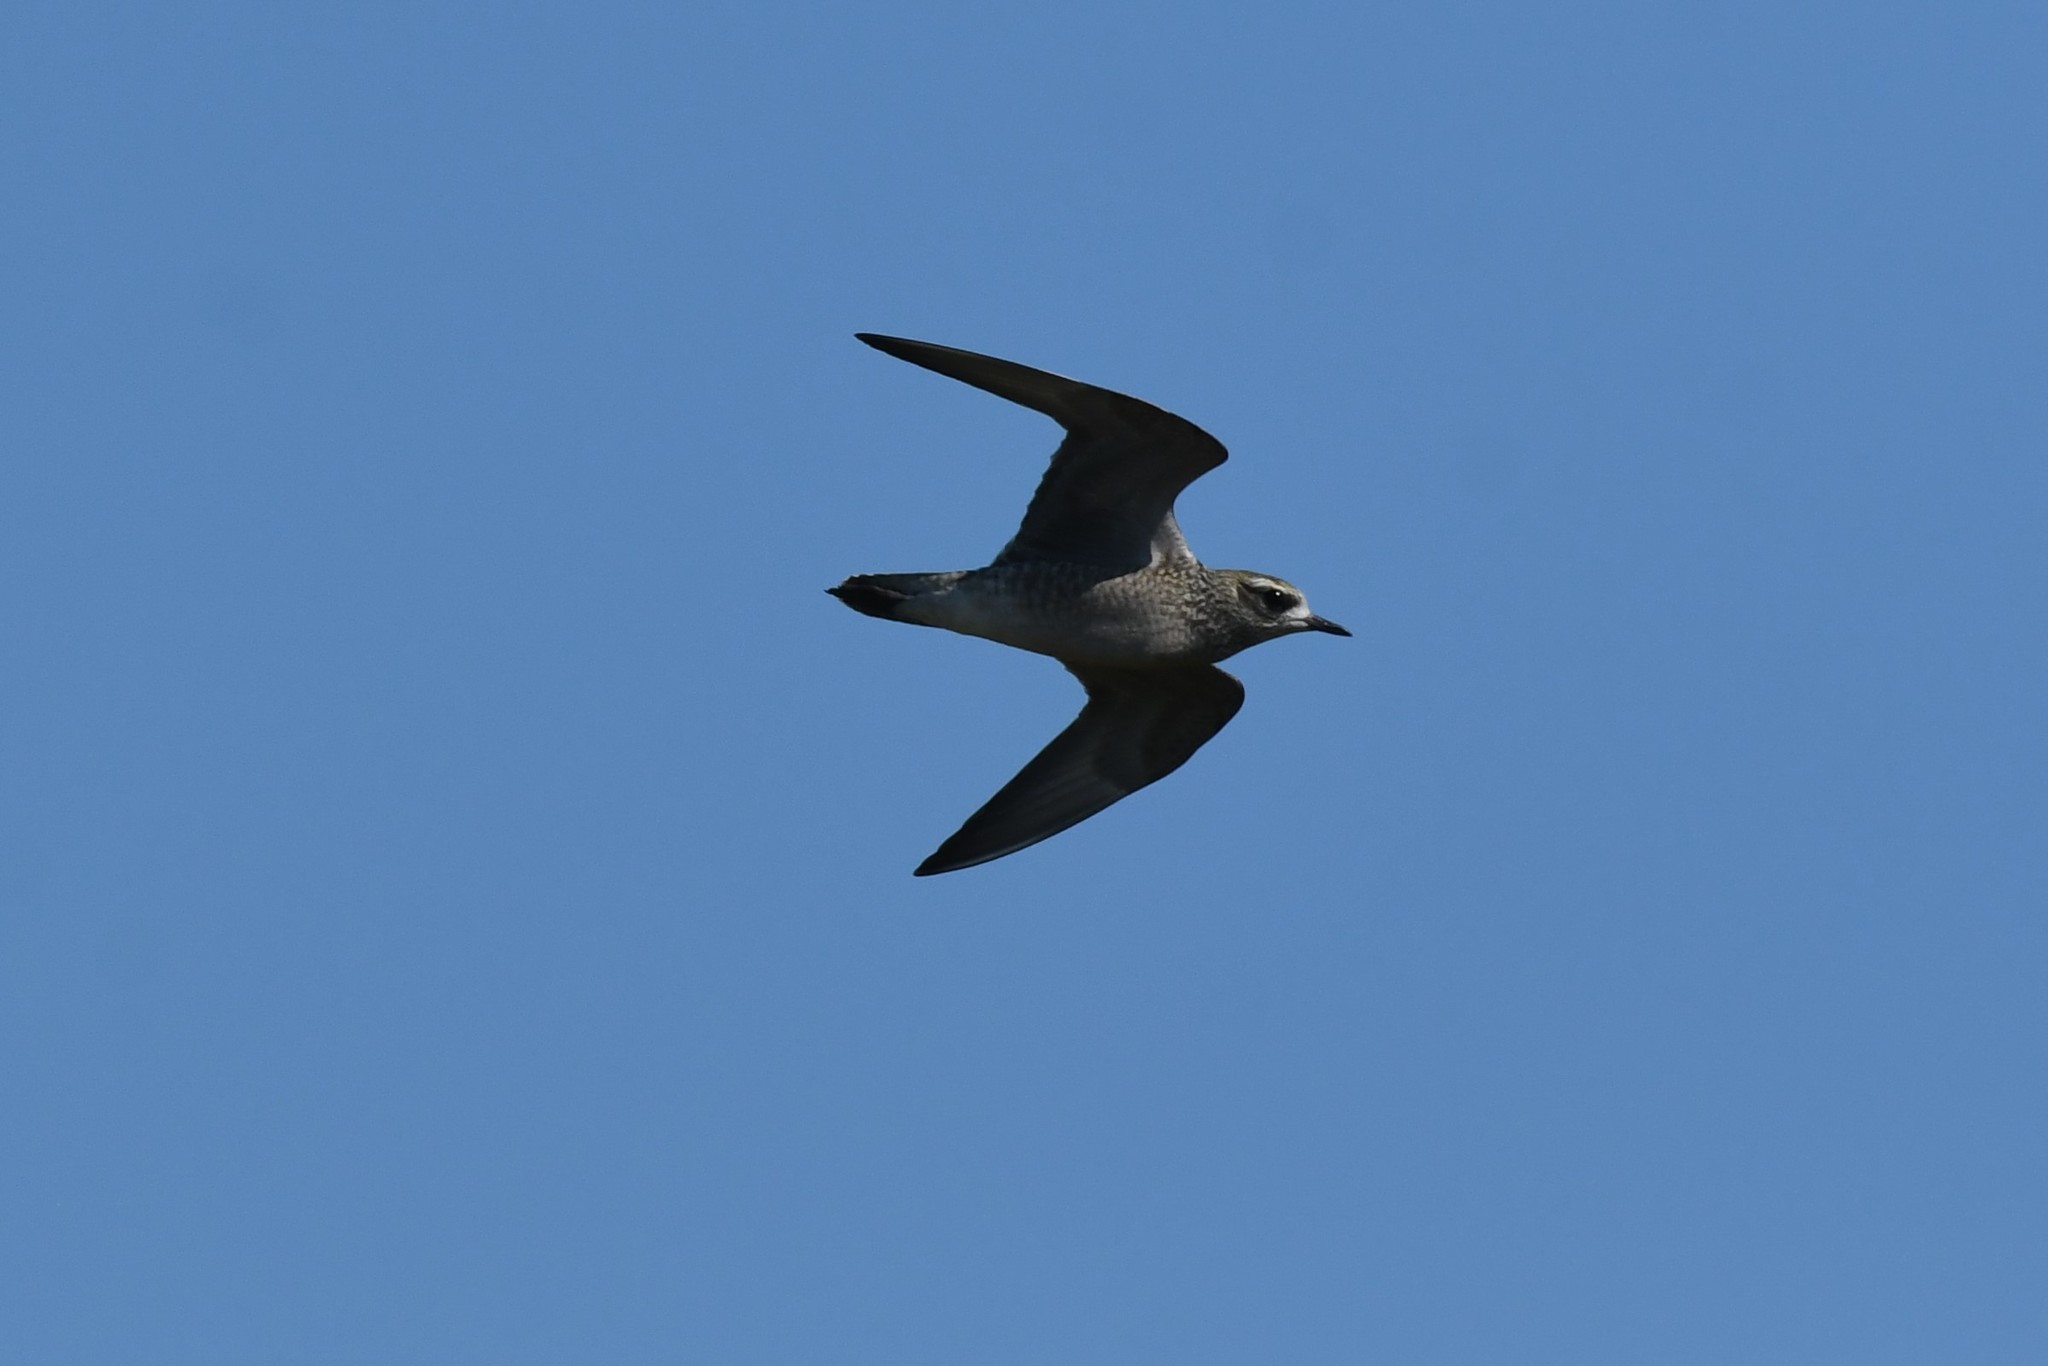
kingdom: Animalia
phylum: Chordata
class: Aves
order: Charadriiformes
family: Charadriidae
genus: Pluvialis
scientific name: Pluvialis dominica
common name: American golden plover
